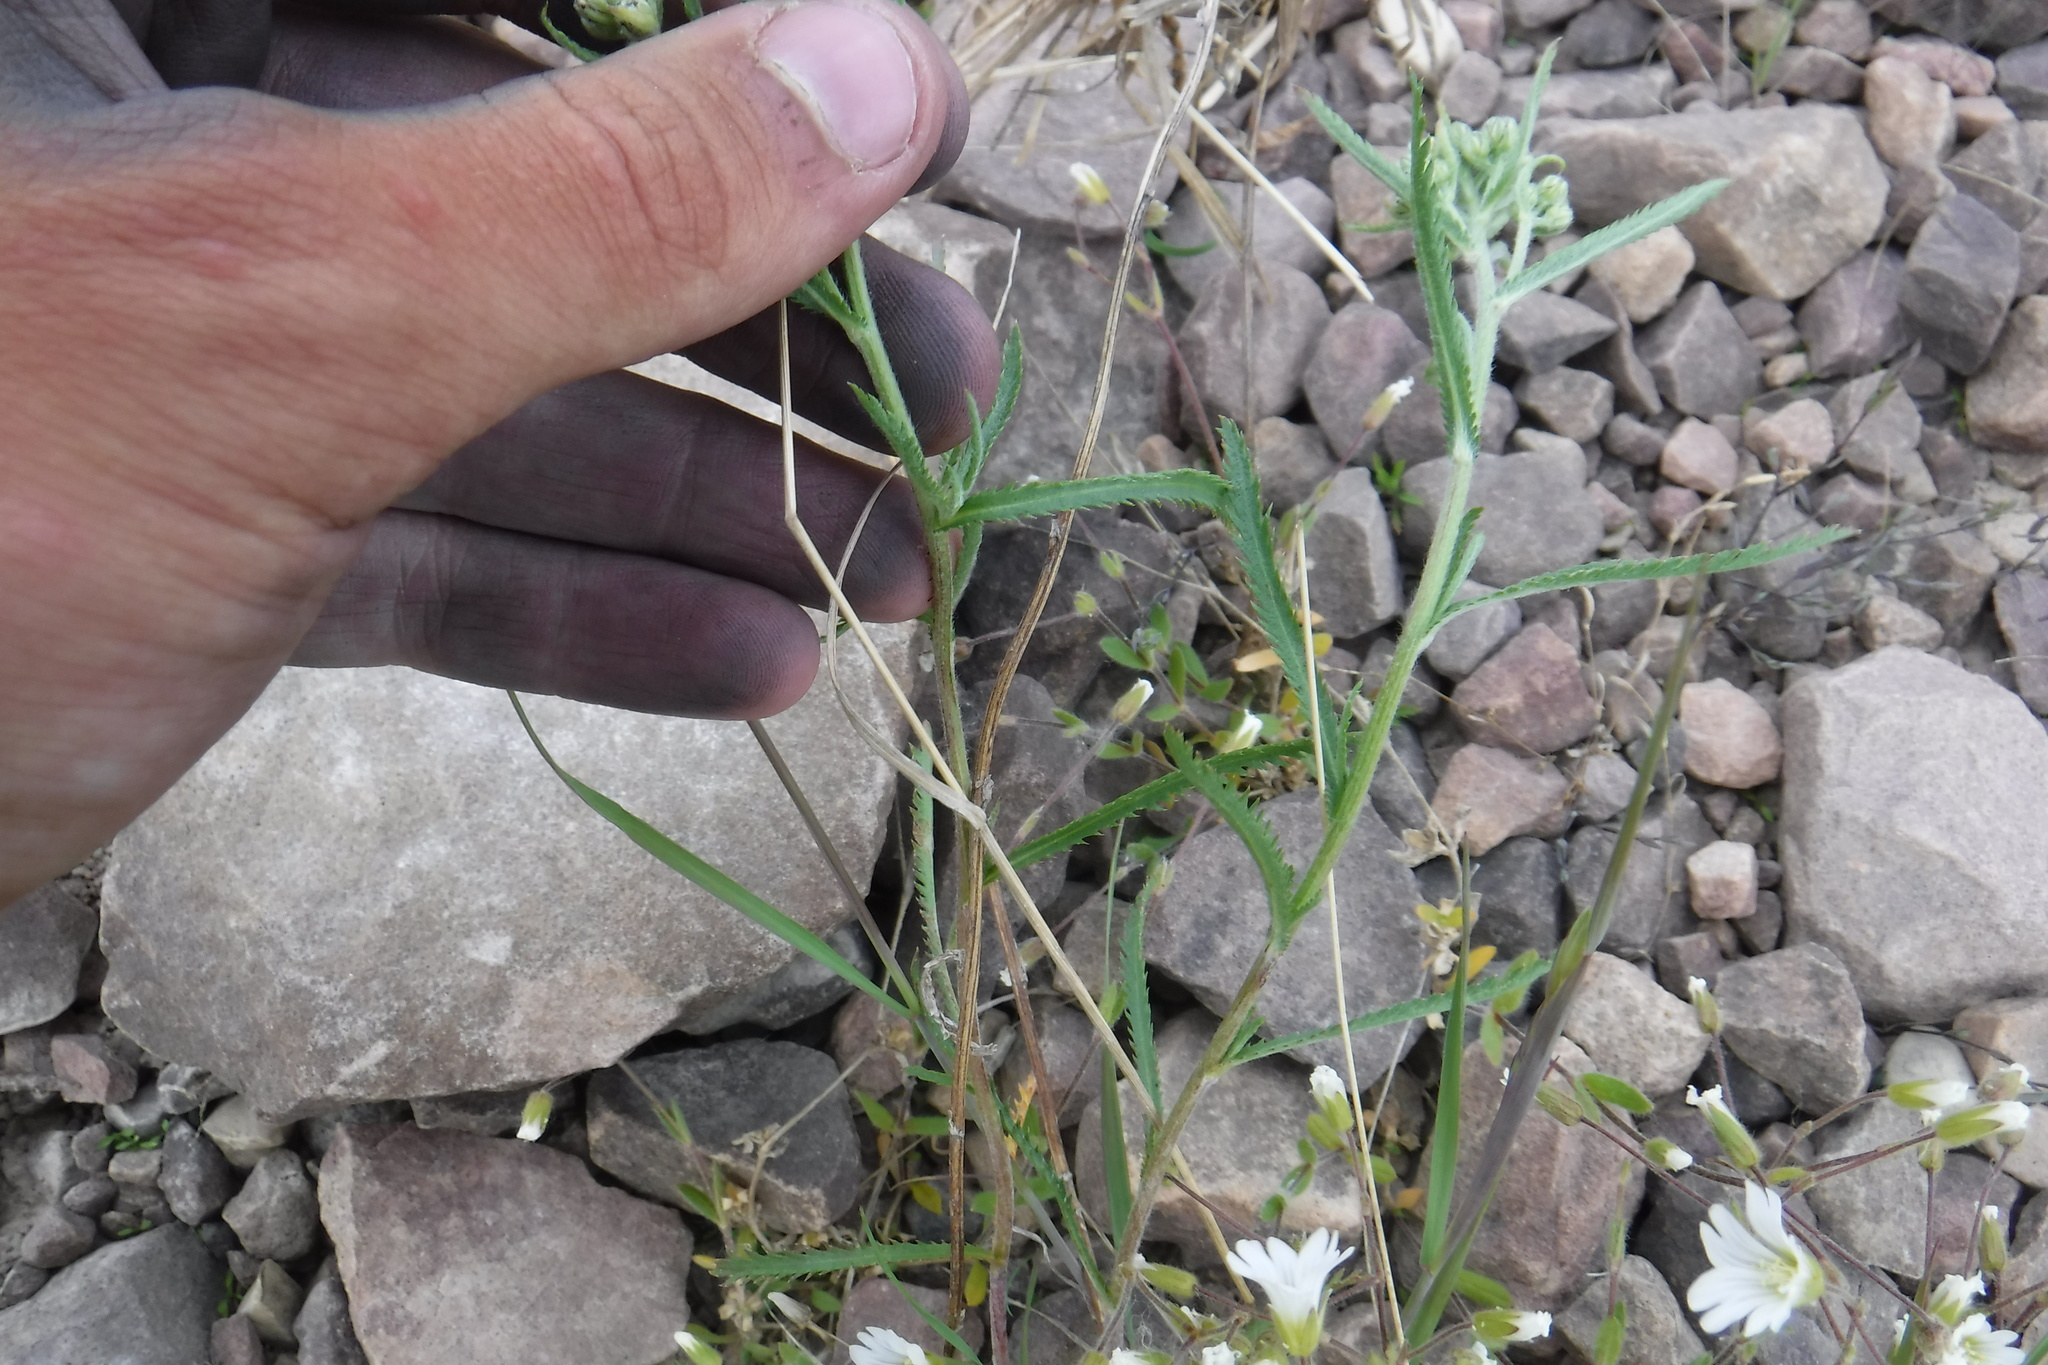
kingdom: Plantae
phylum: Tracheophyta
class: Magnoliopsida
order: Asterales
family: Asteraceae
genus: Achillea
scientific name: Achillea alpina
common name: Siberian yarrow
